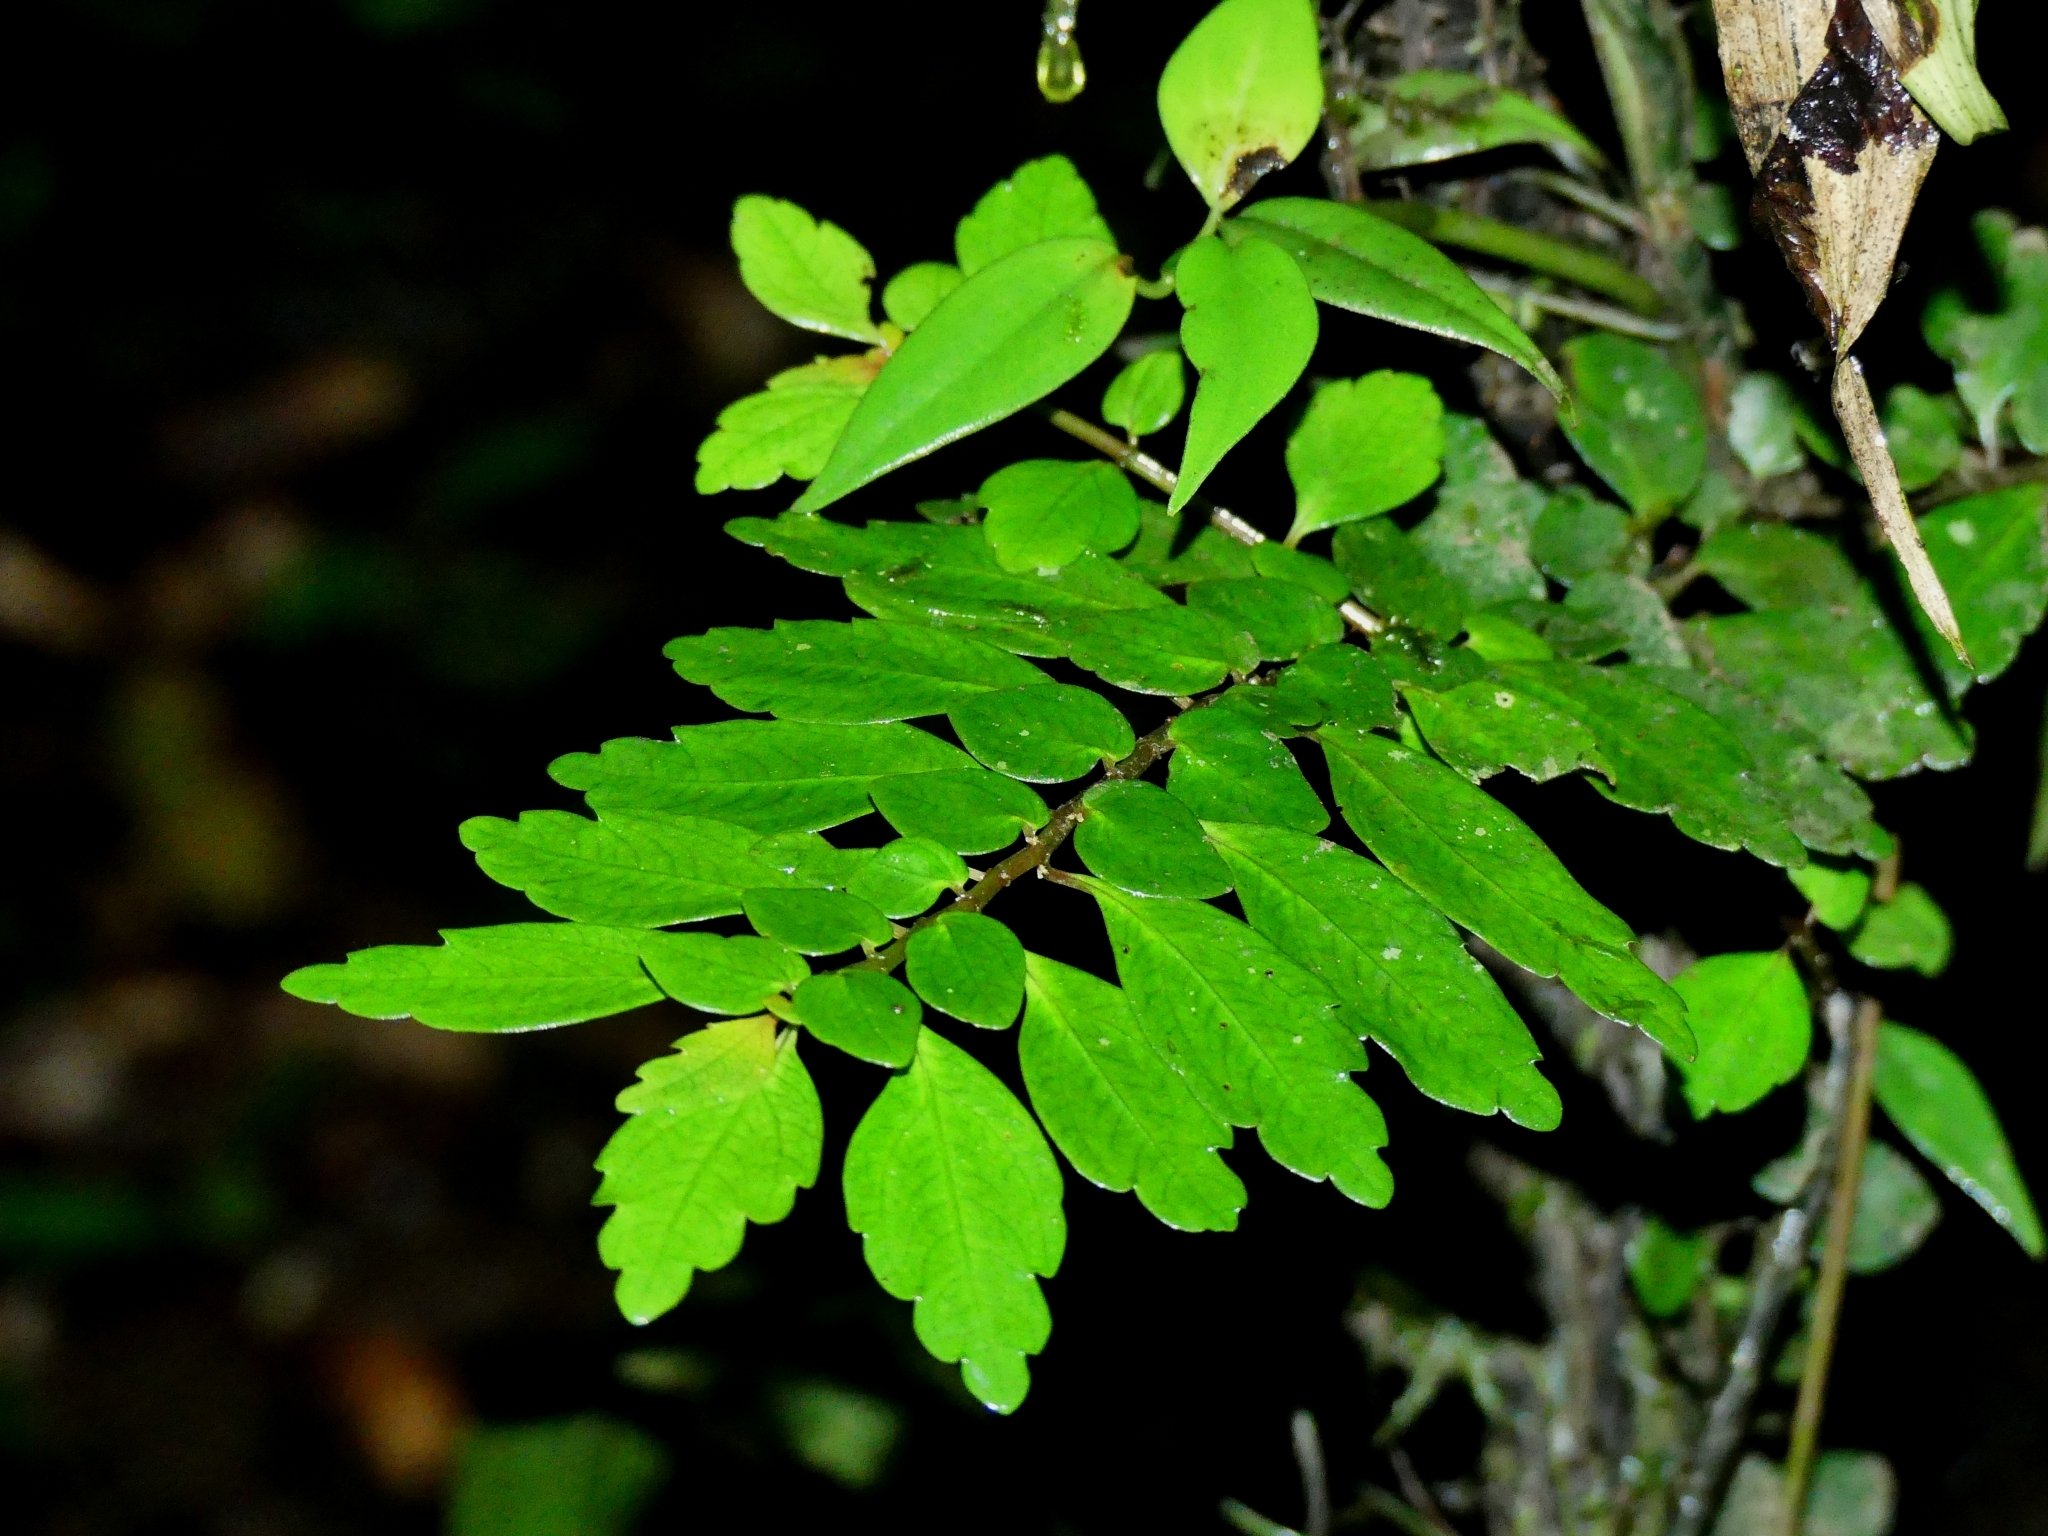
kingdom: Plantae
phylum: Tracheophyta
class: Magnoliopsida
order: Rosales
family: Urticaceae
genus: Pilea
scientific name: Pilea imparifolia
